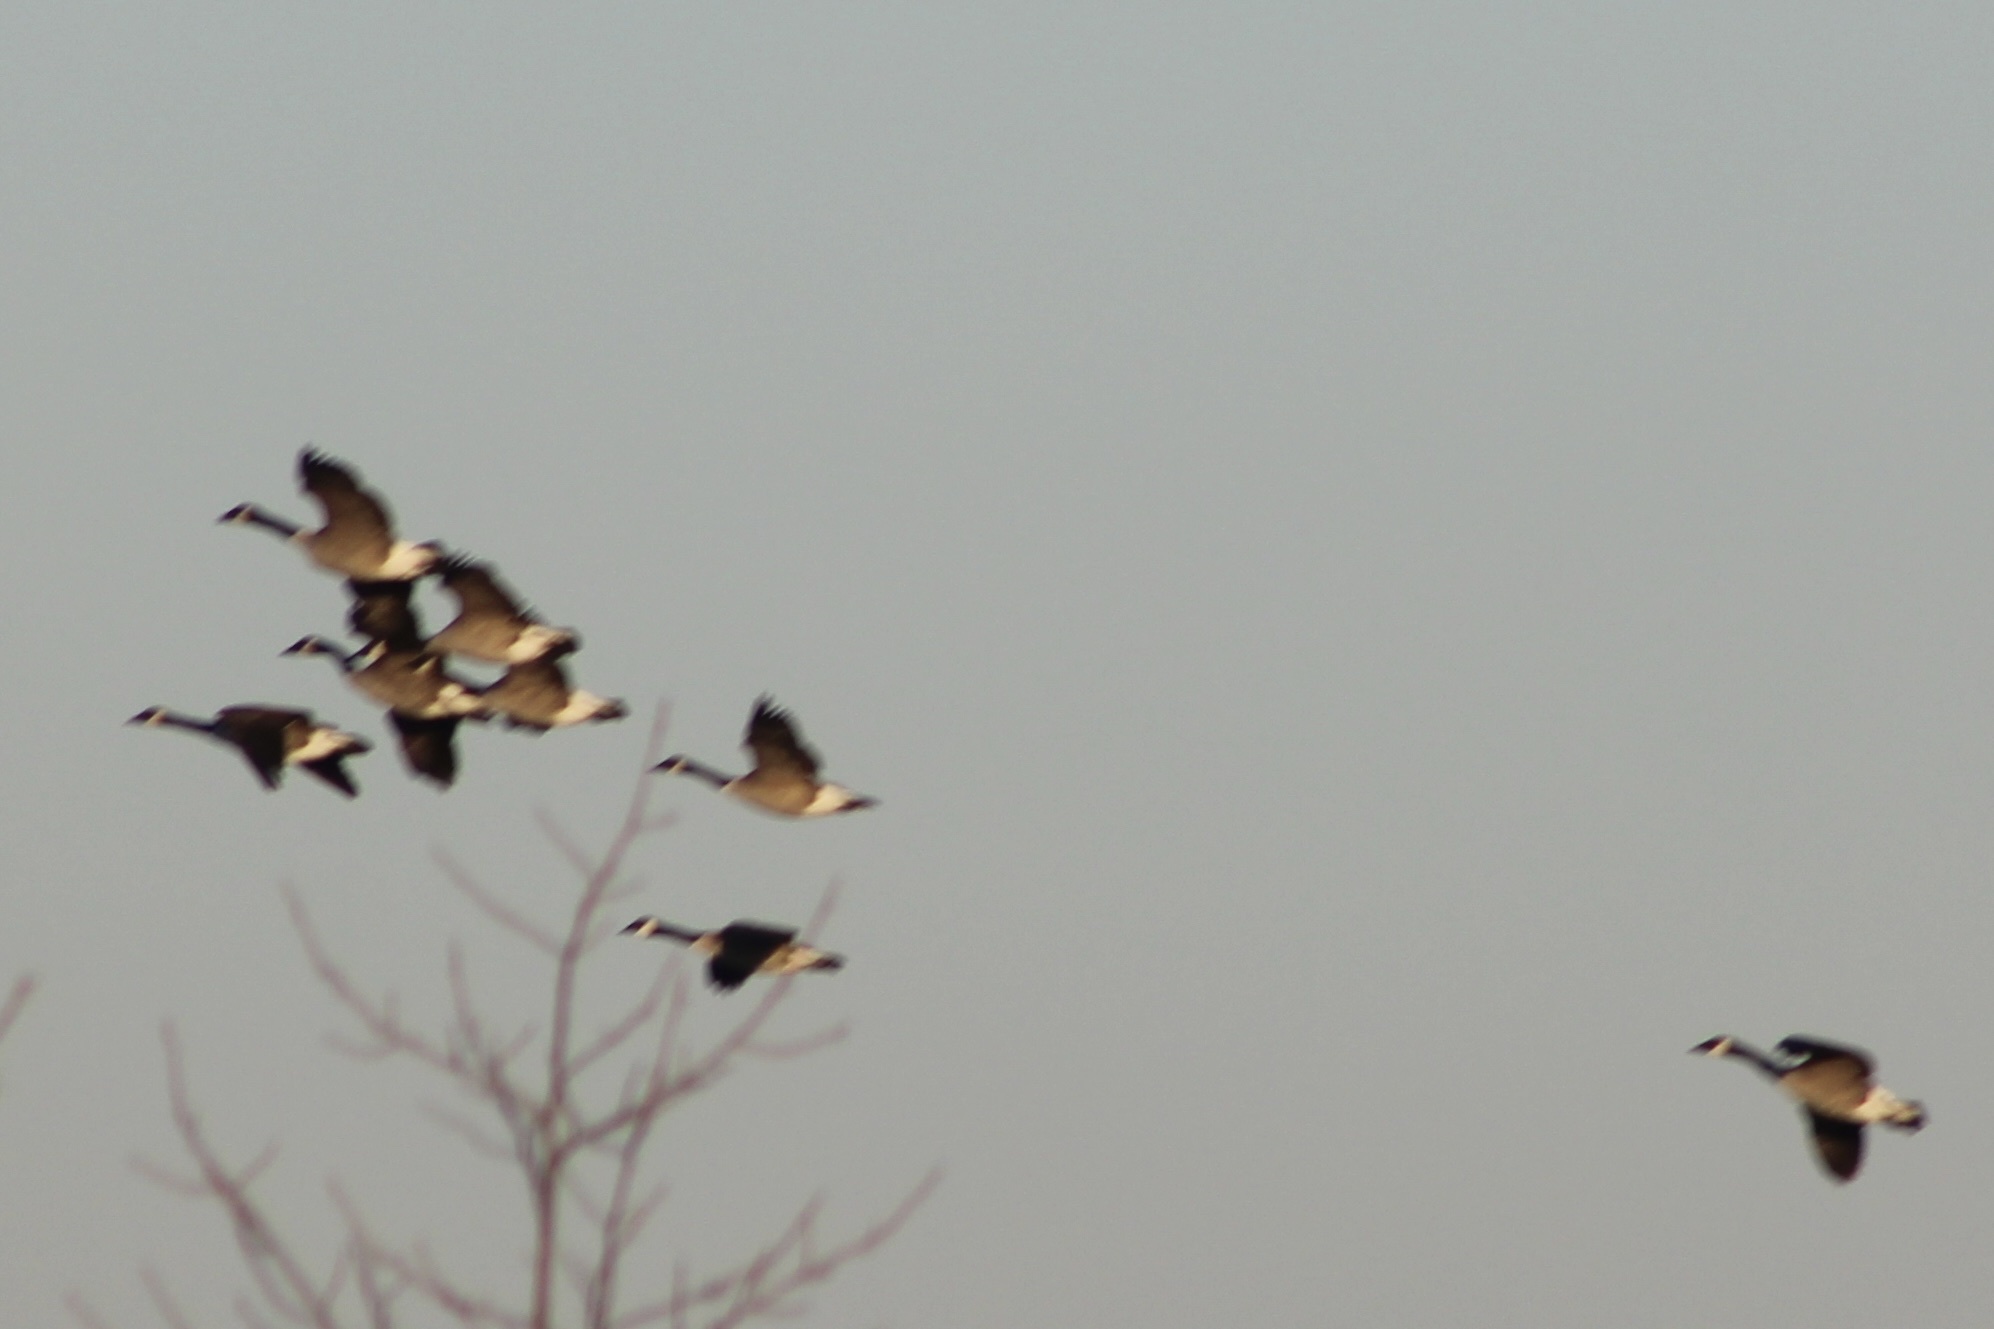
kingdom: Animalia
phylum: Chordata
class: Aves
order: Anseriformes
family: Anatidae
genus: Branta
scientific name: Branta canadensis
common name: Canada goose
